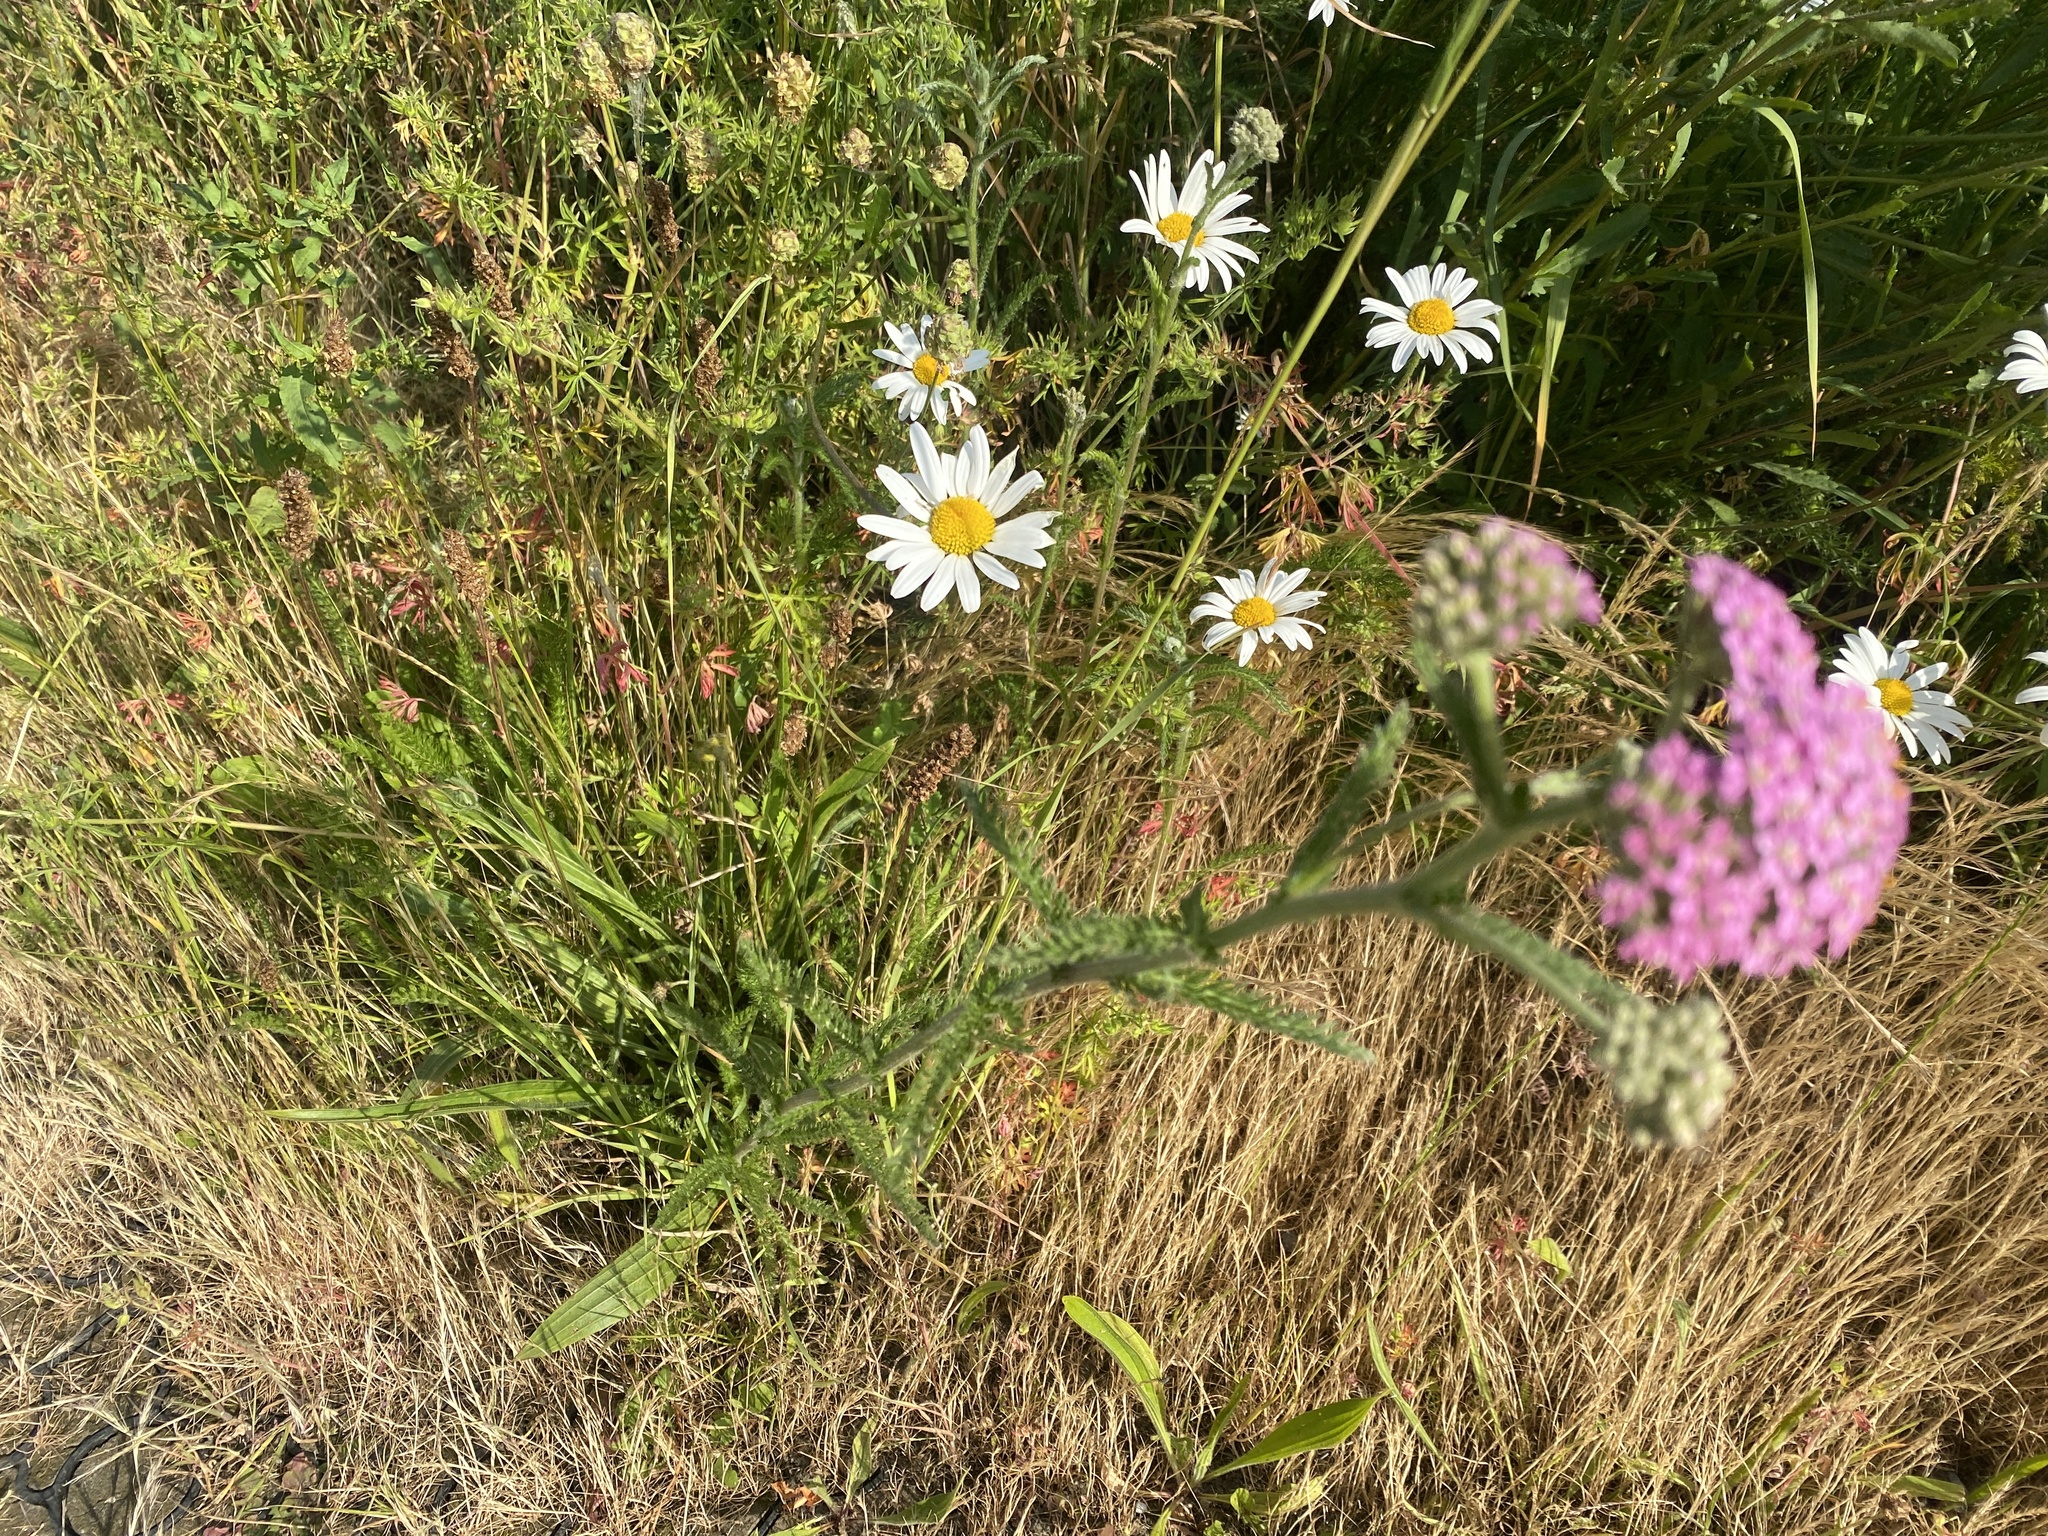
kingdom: Plantae
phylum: Tracheophyta
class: Magnoliopsida
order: Asterales
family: Asteraceae
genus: Achillea
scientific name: Achillea millefolium
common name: Yarrow
